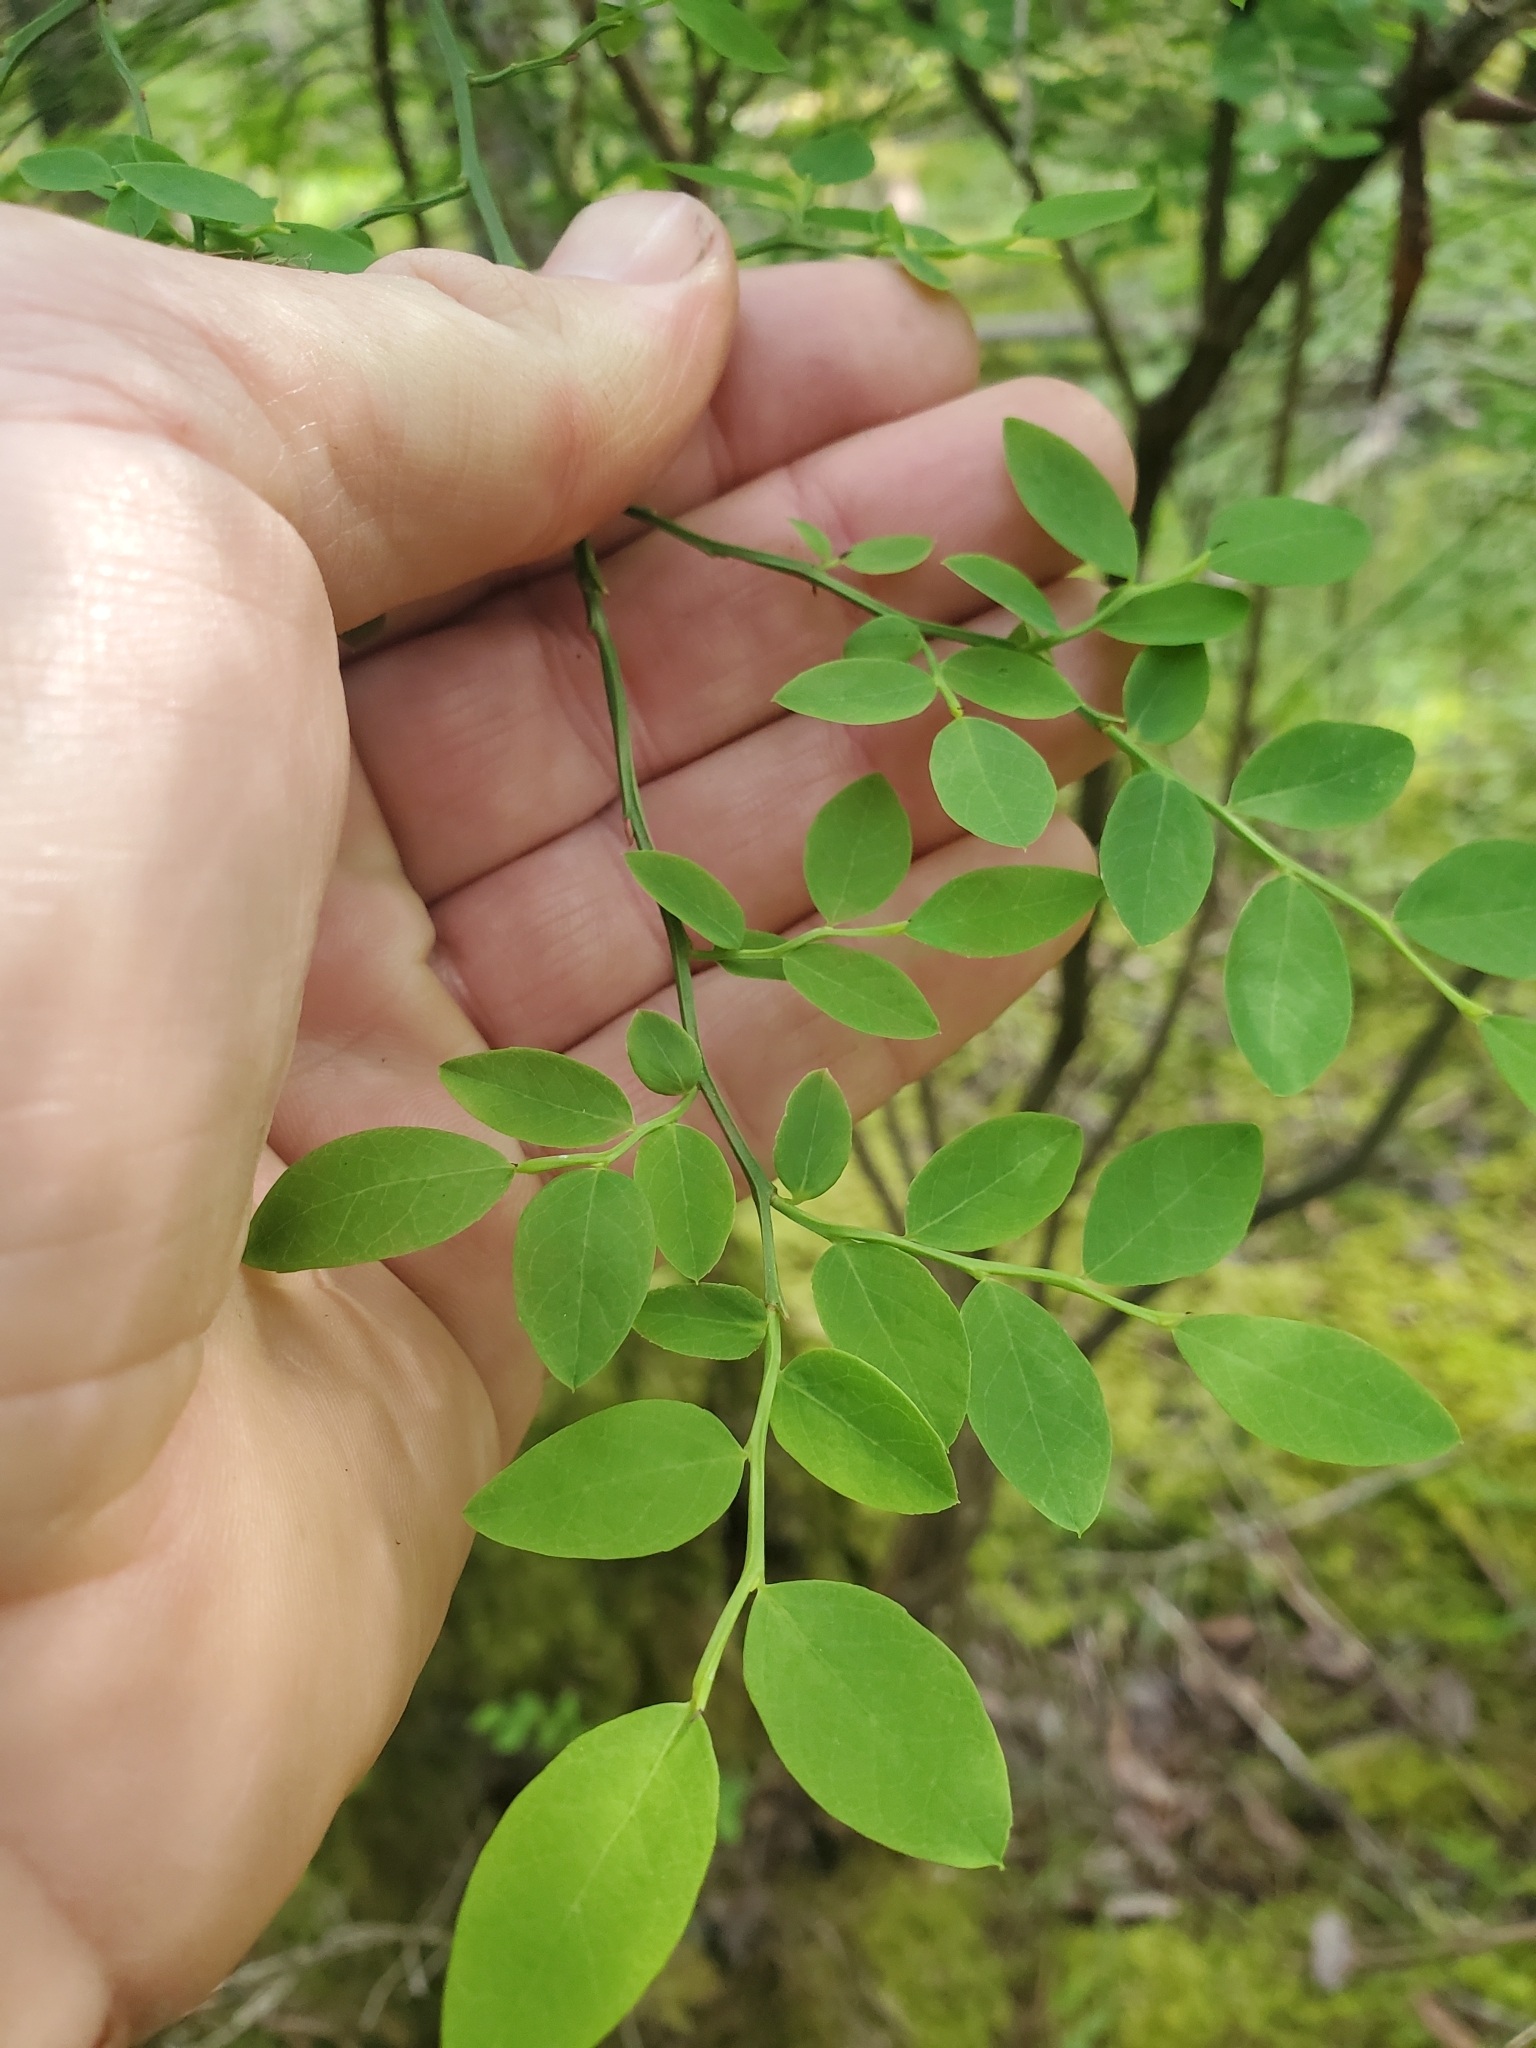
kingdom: Plantae
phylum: Tracheophyta
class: Magnoliopsida
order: Ericales
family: Ericaceae
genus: Vaccinium
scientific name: Vaccinium parvifolium
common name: Red-huckleberry
